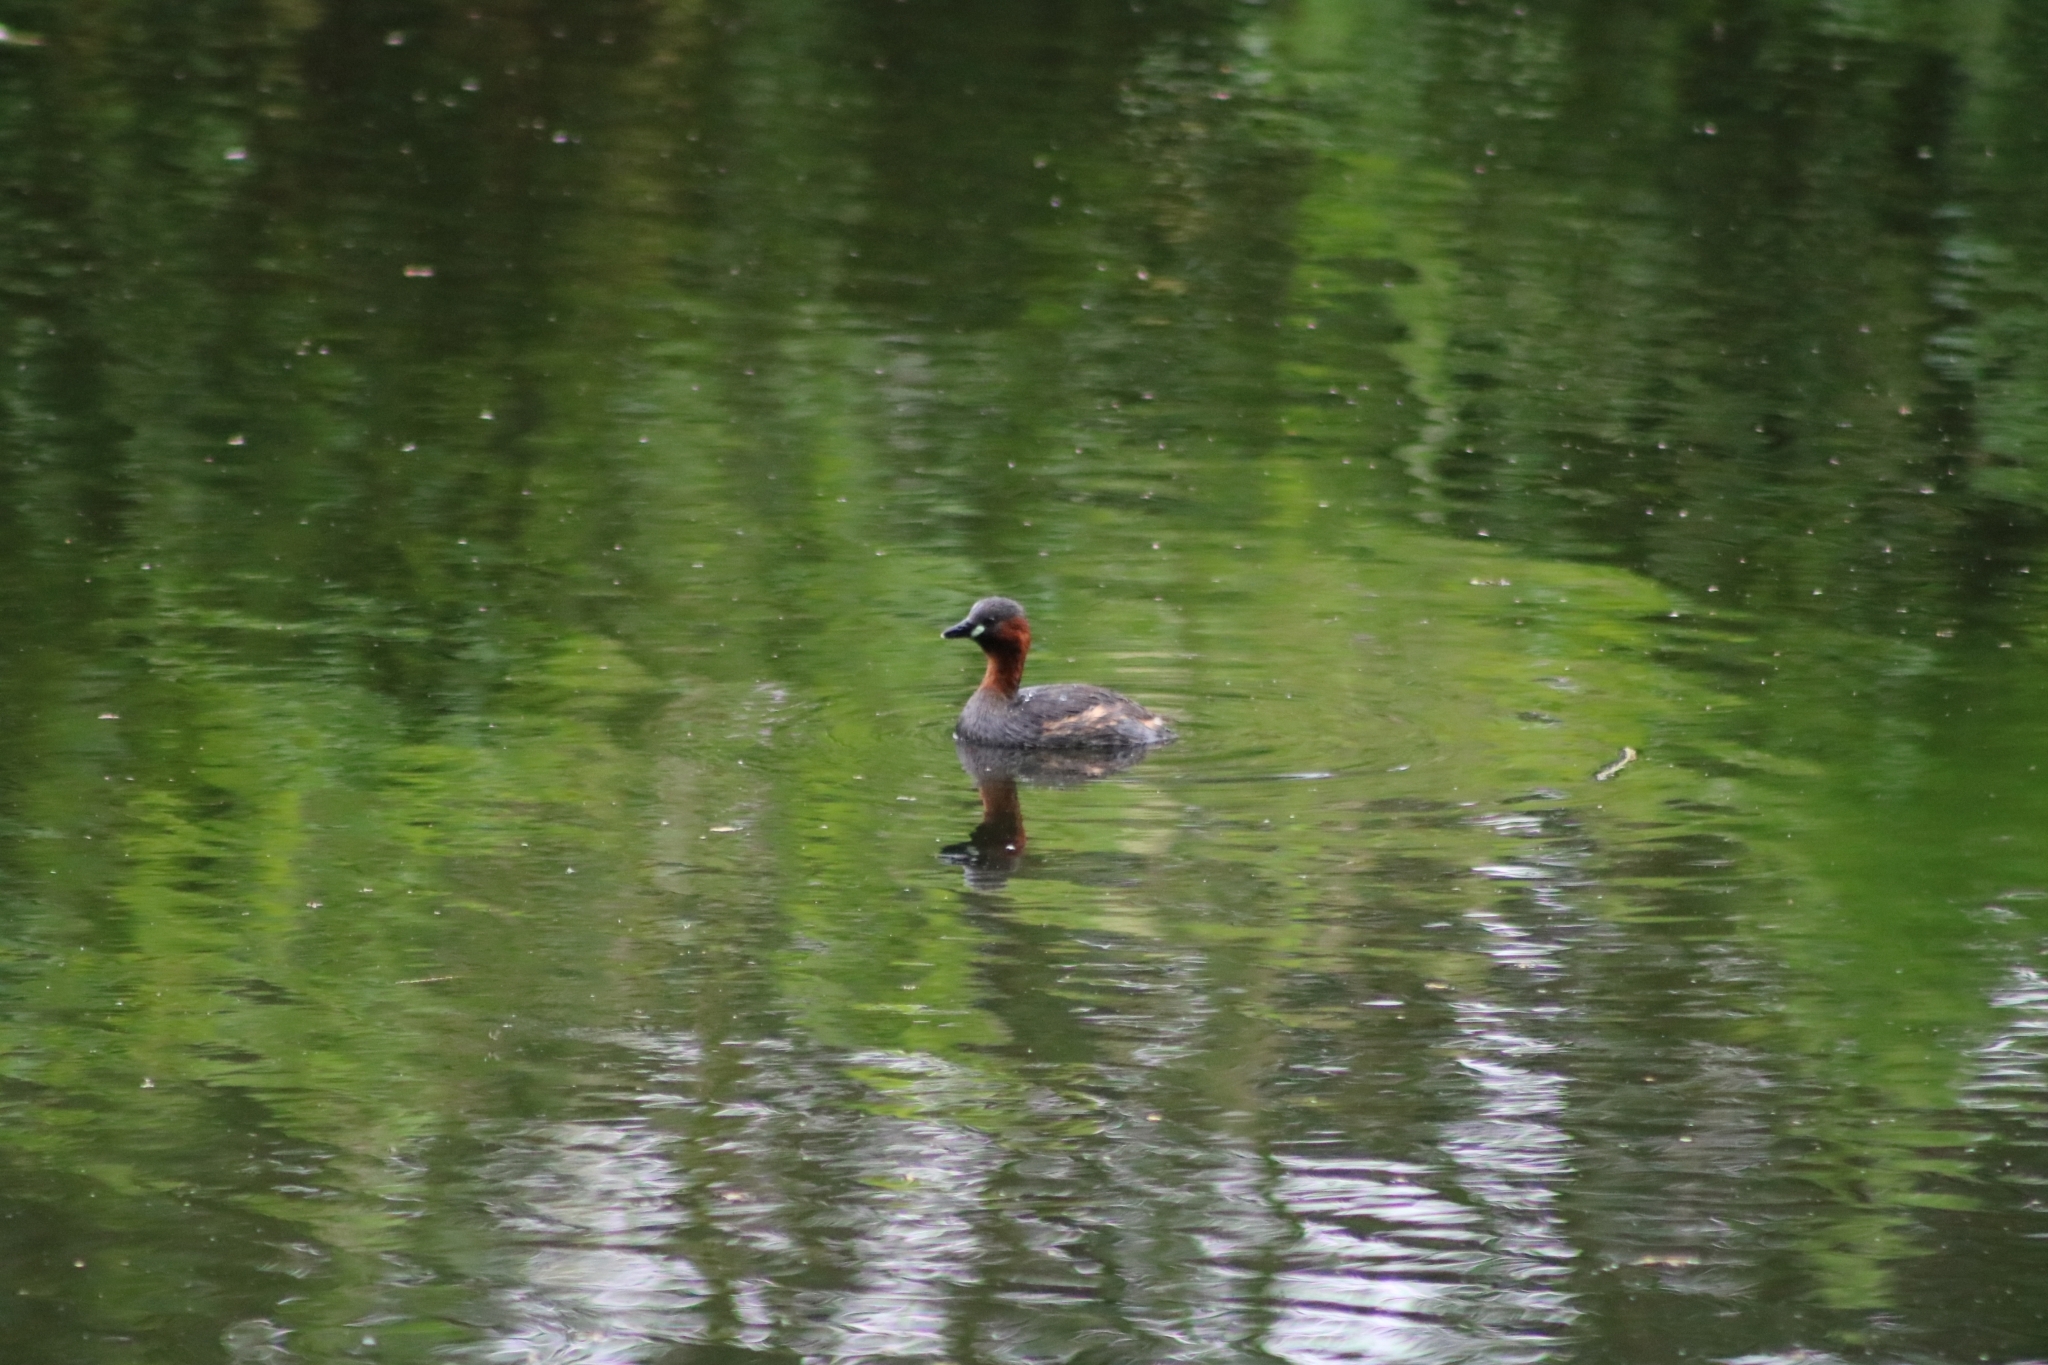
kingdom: Animalia
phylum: Chordata
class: Aves
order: Podicipediformes
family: Podicipedidae
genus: Tachybaptus
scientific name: Tachybaptus ruficollis
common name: Little grebe
